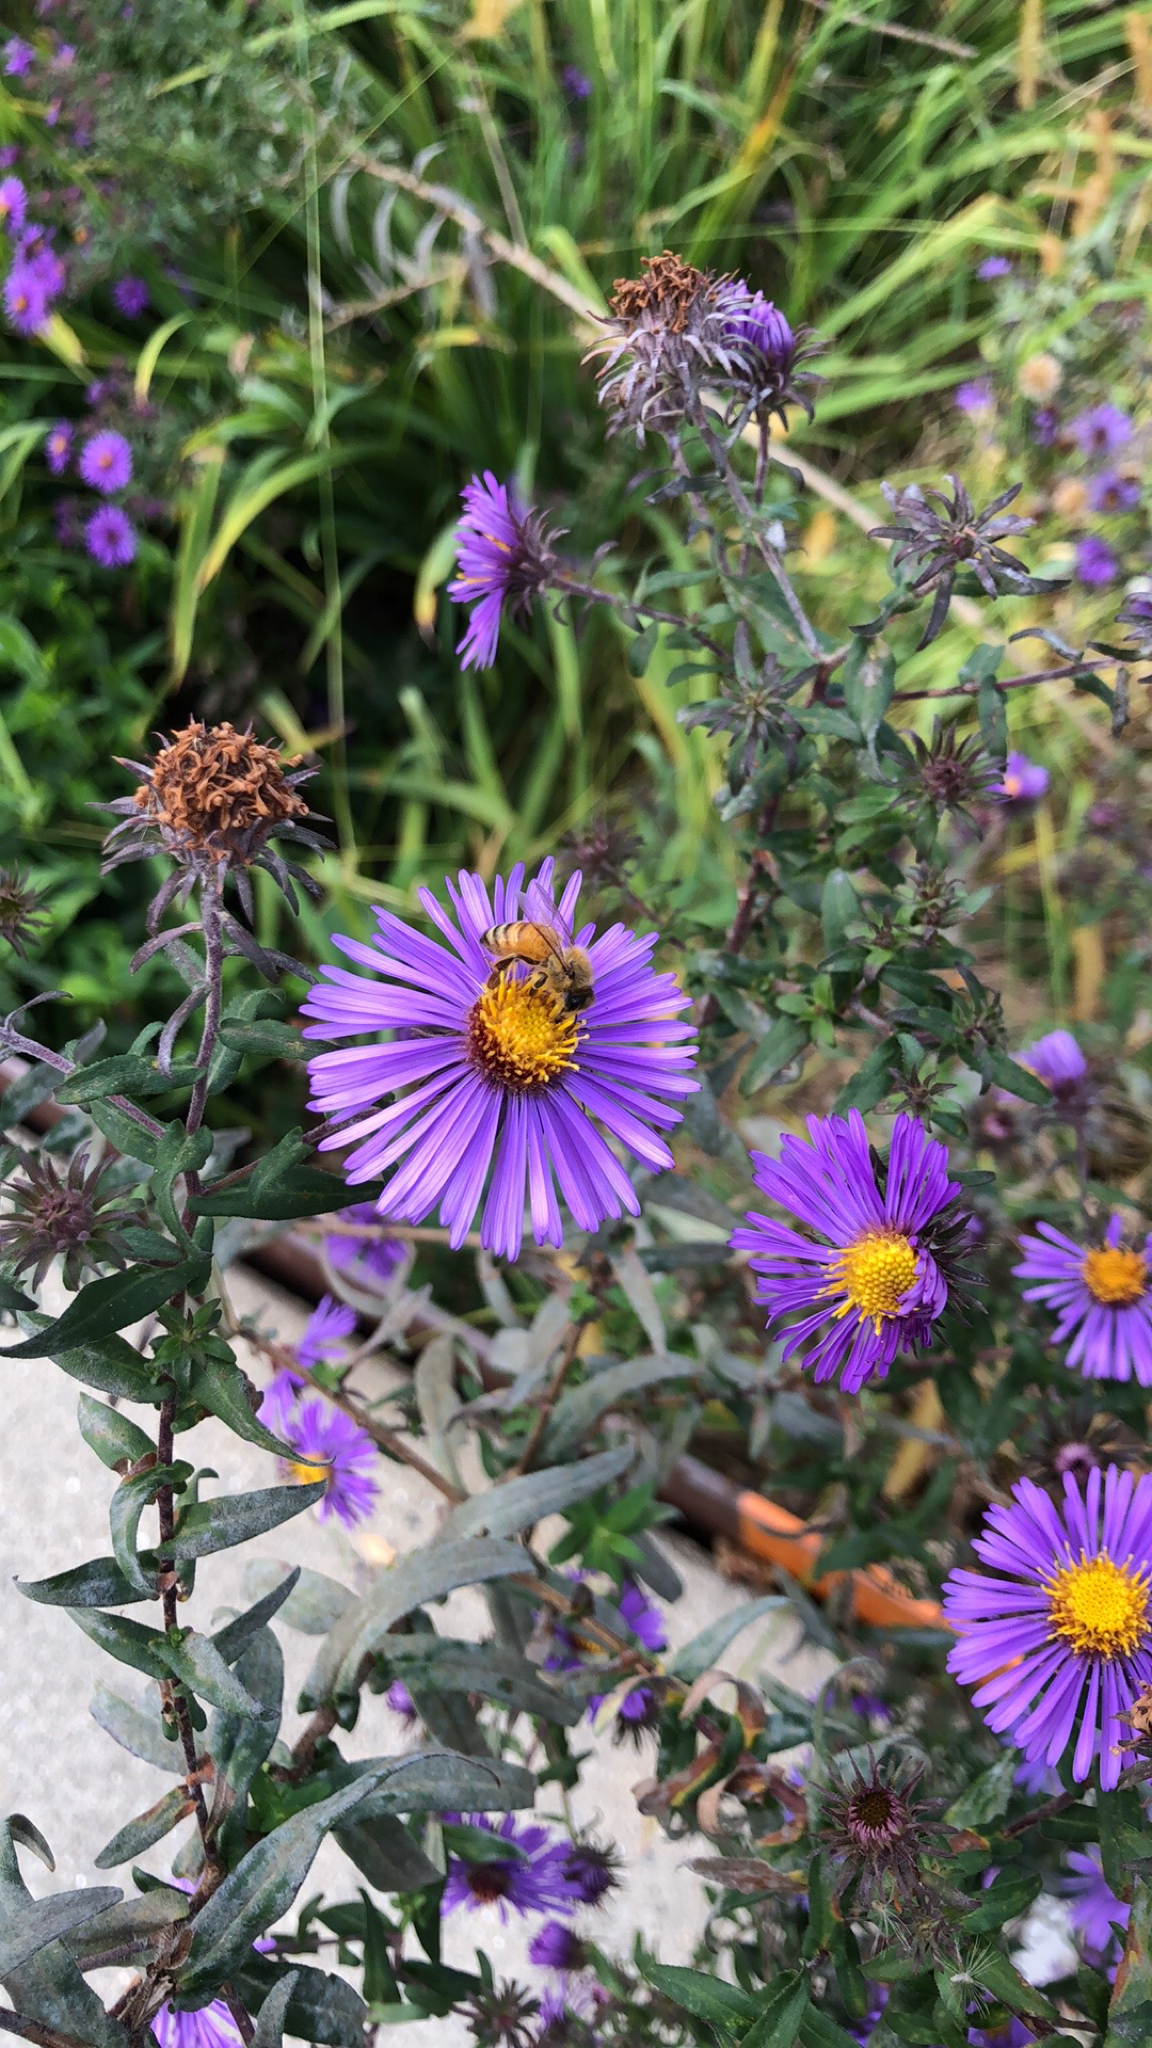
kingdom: Plantae
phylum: Tracheophyta
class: Magnoliopsida
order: Asterales
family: Asteraceae
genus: Symphyotrichum
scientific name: Symphyotrichum novae-angliae
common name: Michaelmas daisy
